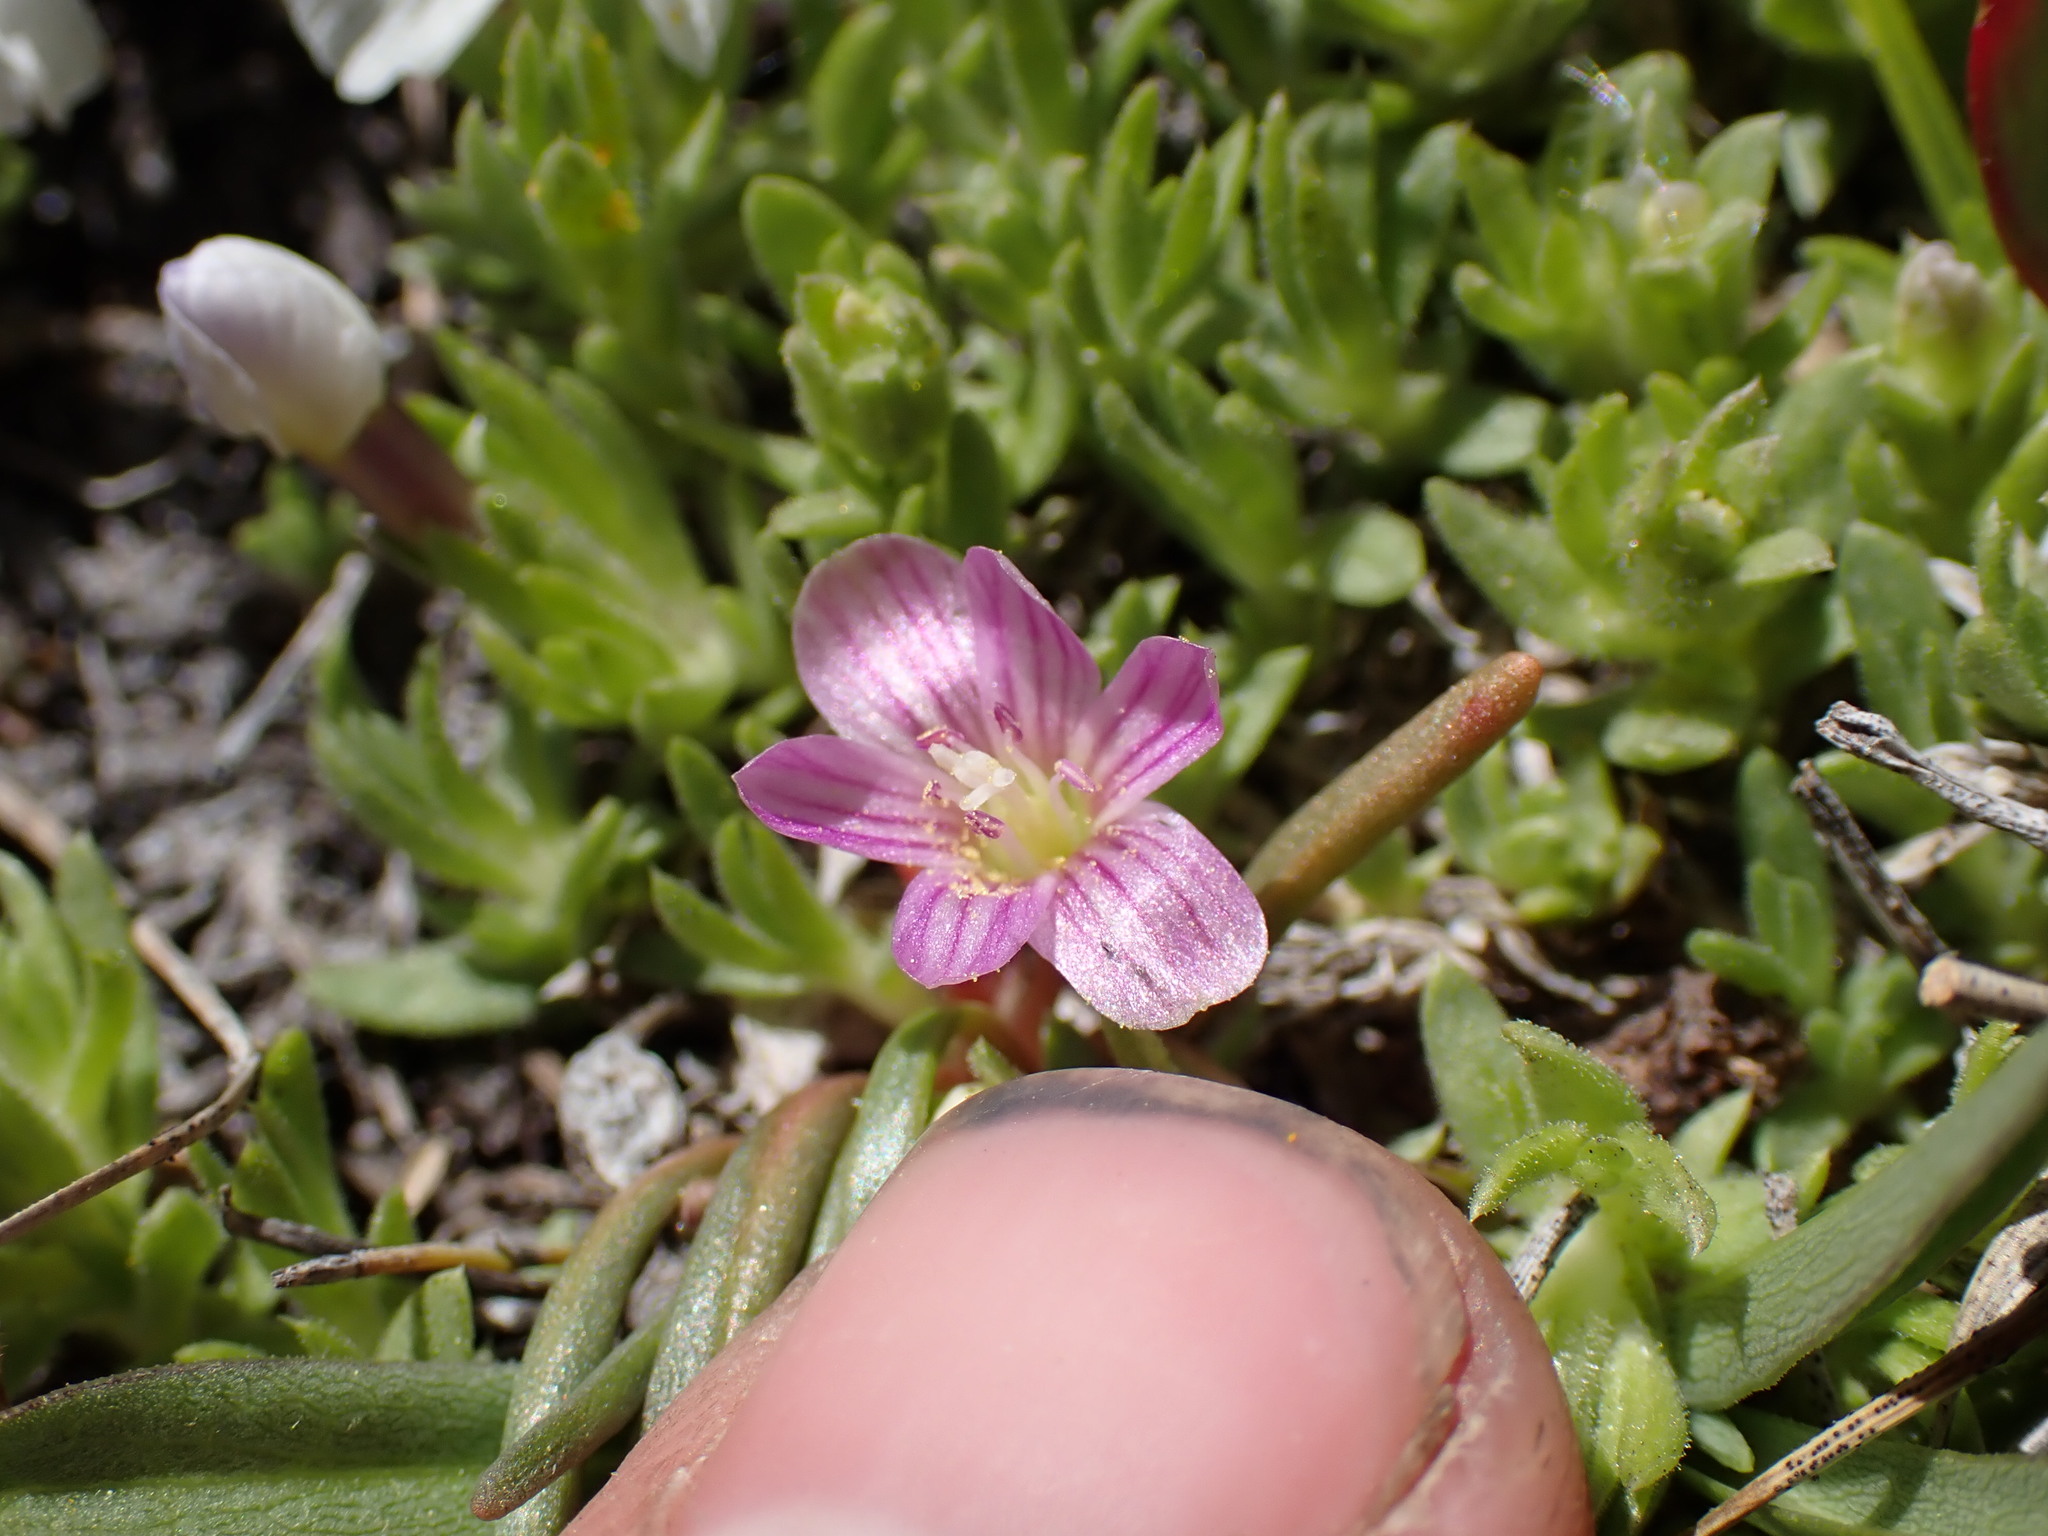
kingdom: Plantae
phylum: Tracheophyta
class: Magnoliopsida
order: Caryophyllales
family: Montiaceae
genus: Lewisia
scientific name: Lewisia pygmaea
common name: Alpine bitterroot
